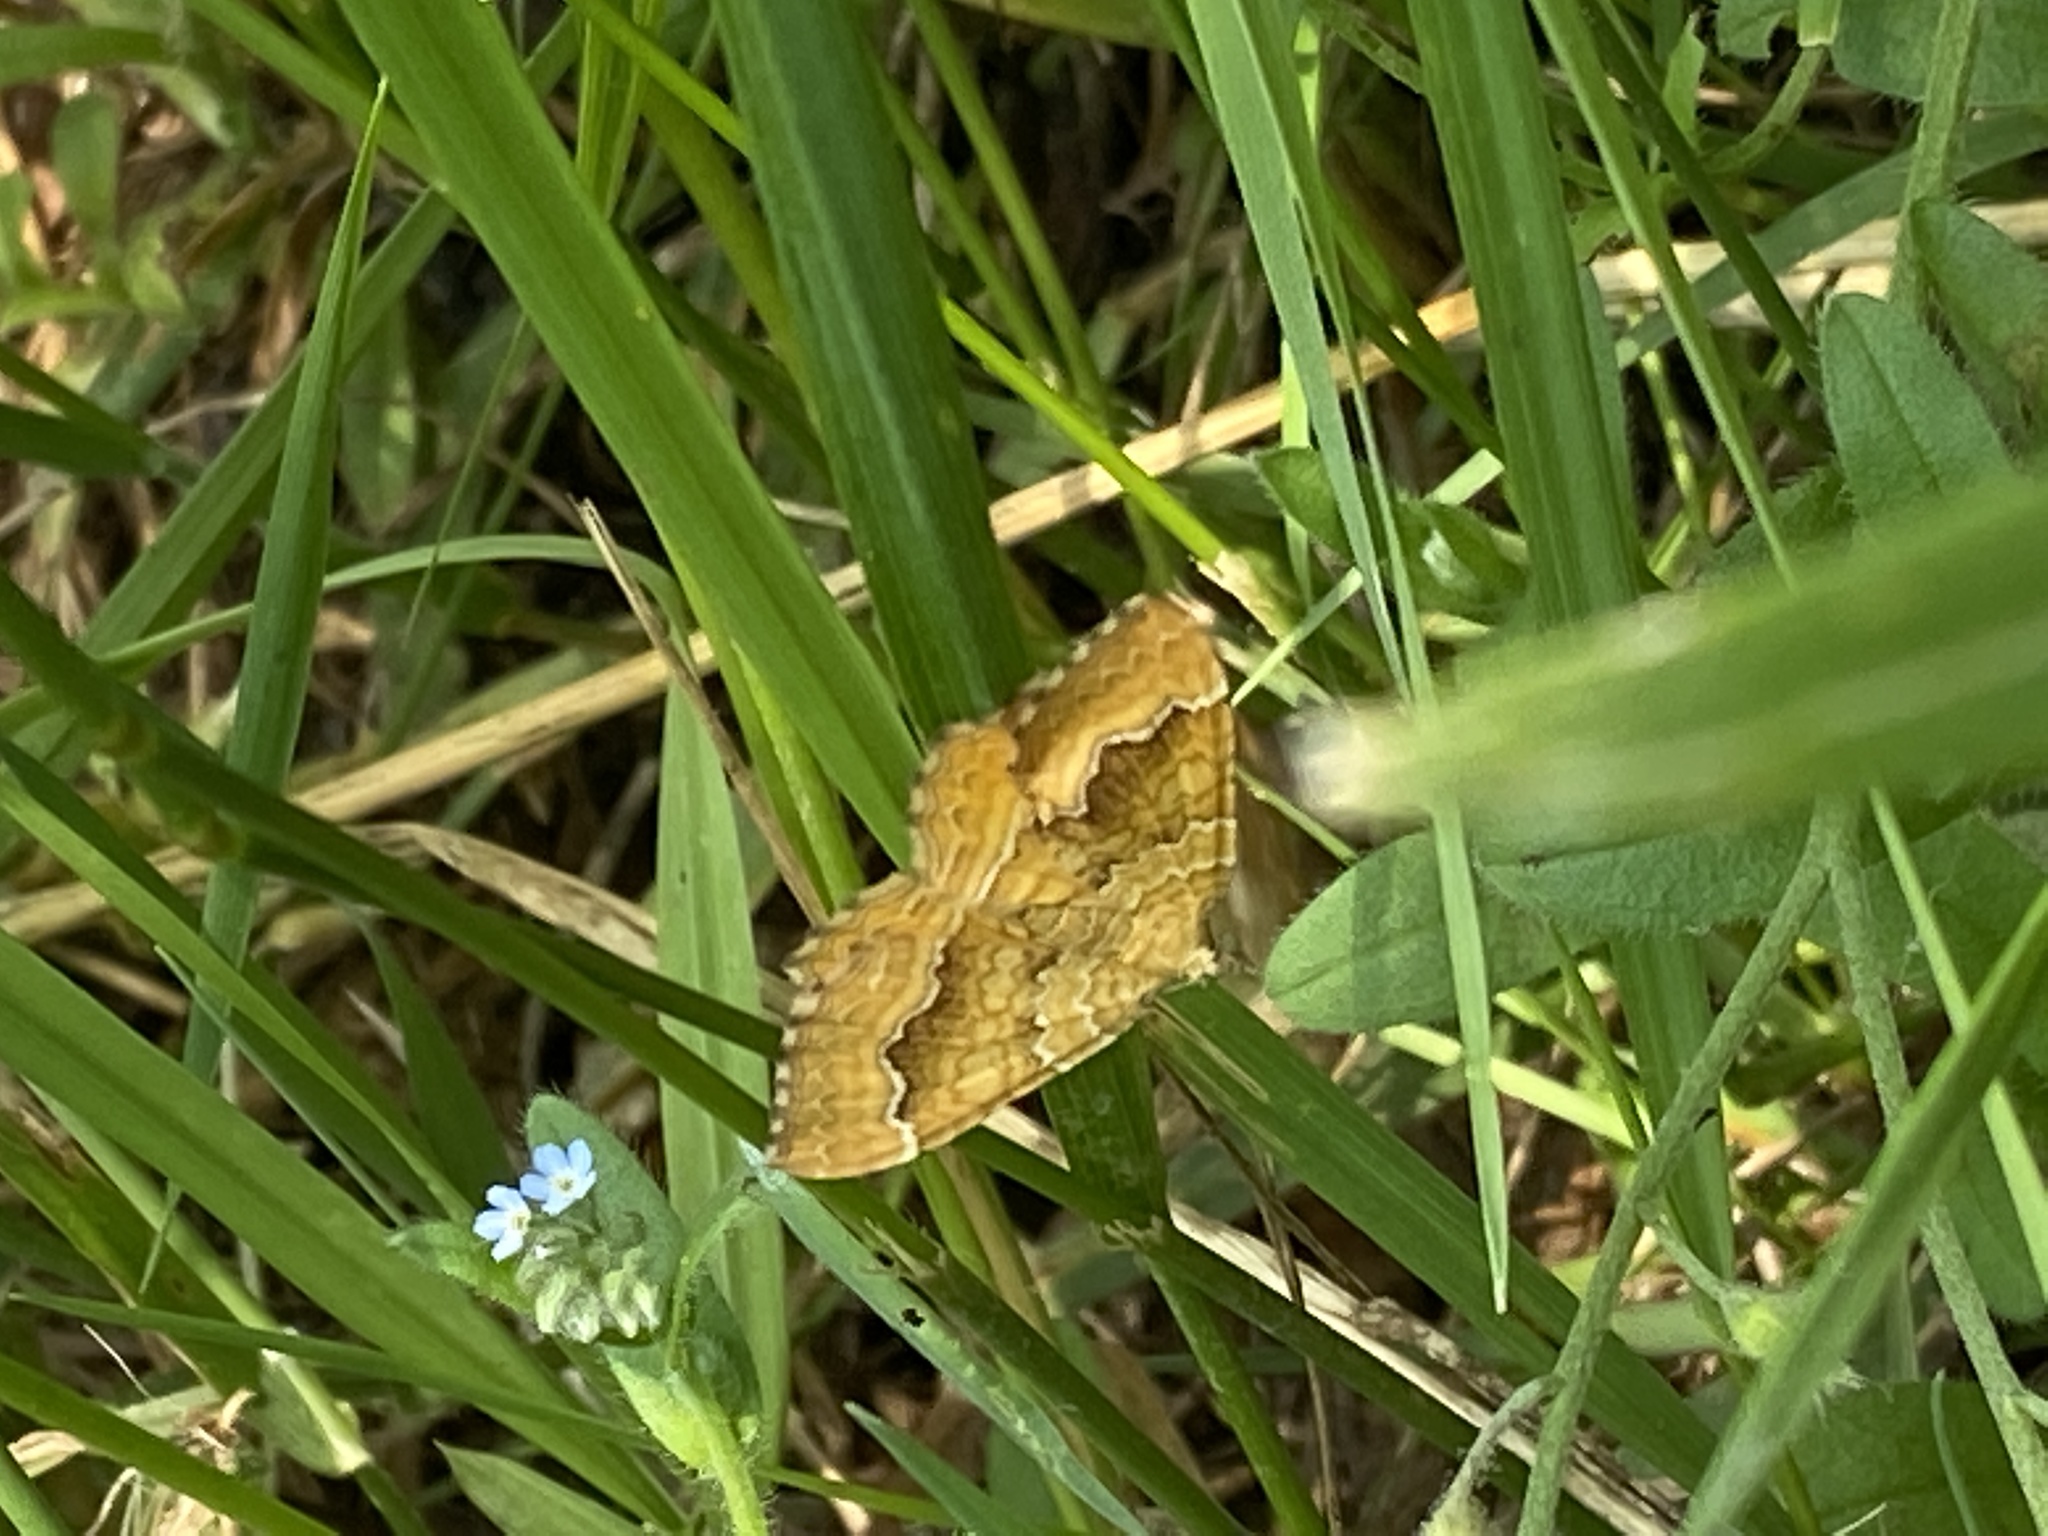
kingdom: Animalia
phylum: Arthropoda
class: Insecta
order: Lepidoptera
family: Geometridae
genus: Camptogramma
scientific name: Camptogramma bilineata
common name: Yellow shell
